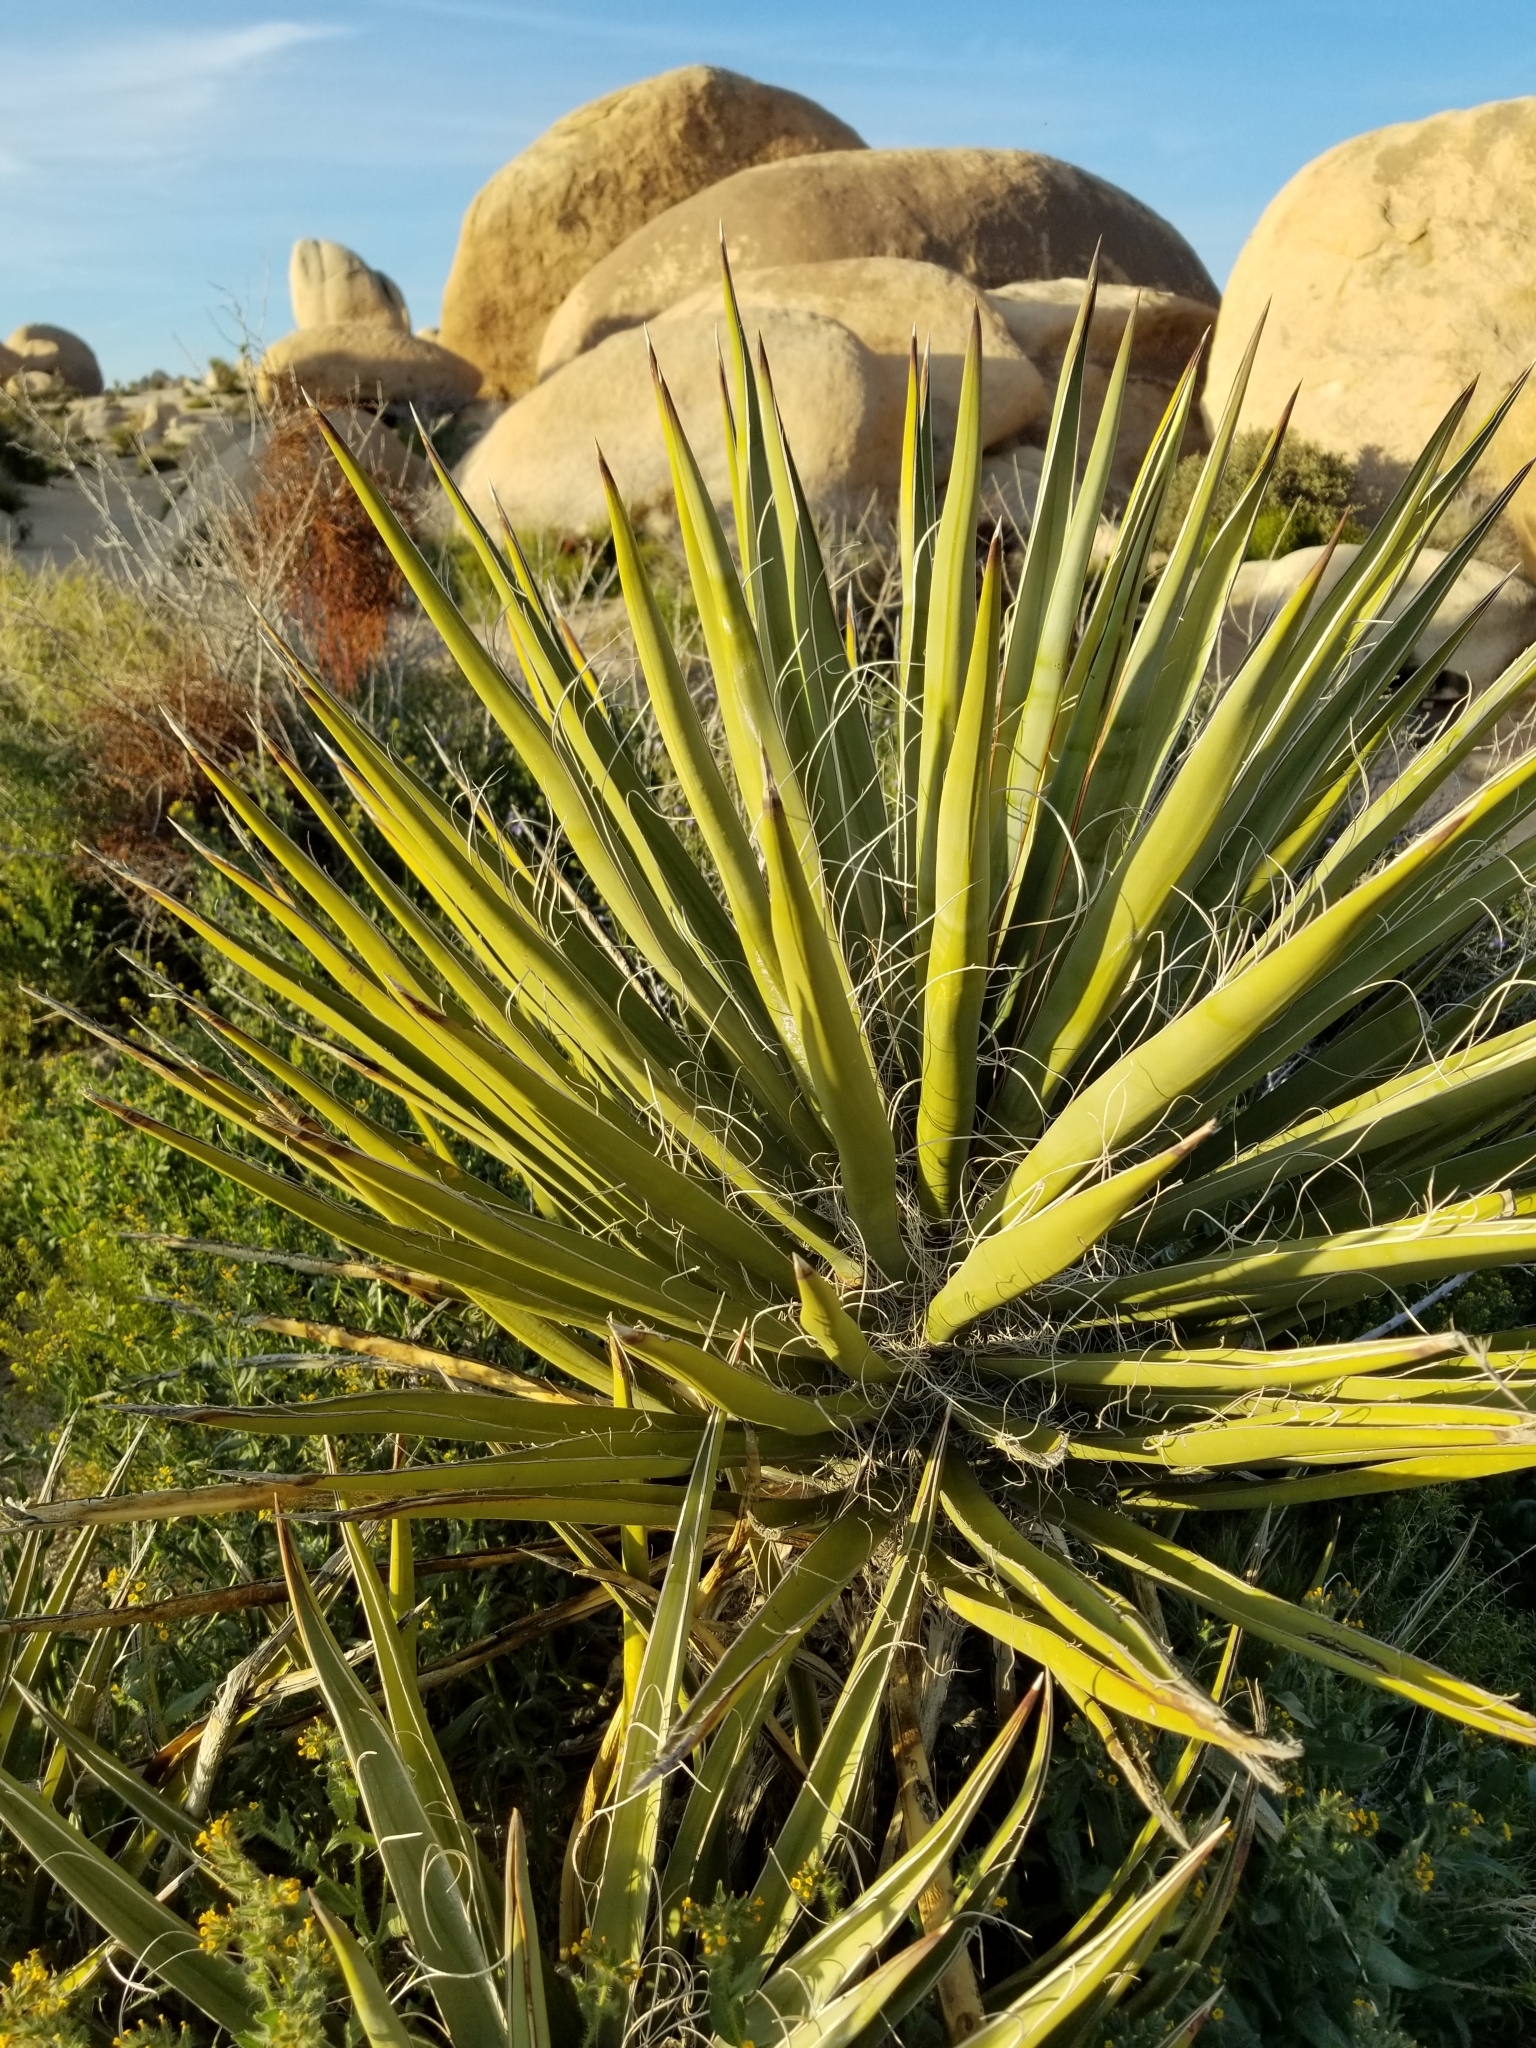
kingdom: Plantae
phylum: Tracheophyta
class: Liliopsida
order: Asparagales
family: Asparagaceae
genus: Yucca
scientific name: Yucca schidigera
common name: Mojave yucca
